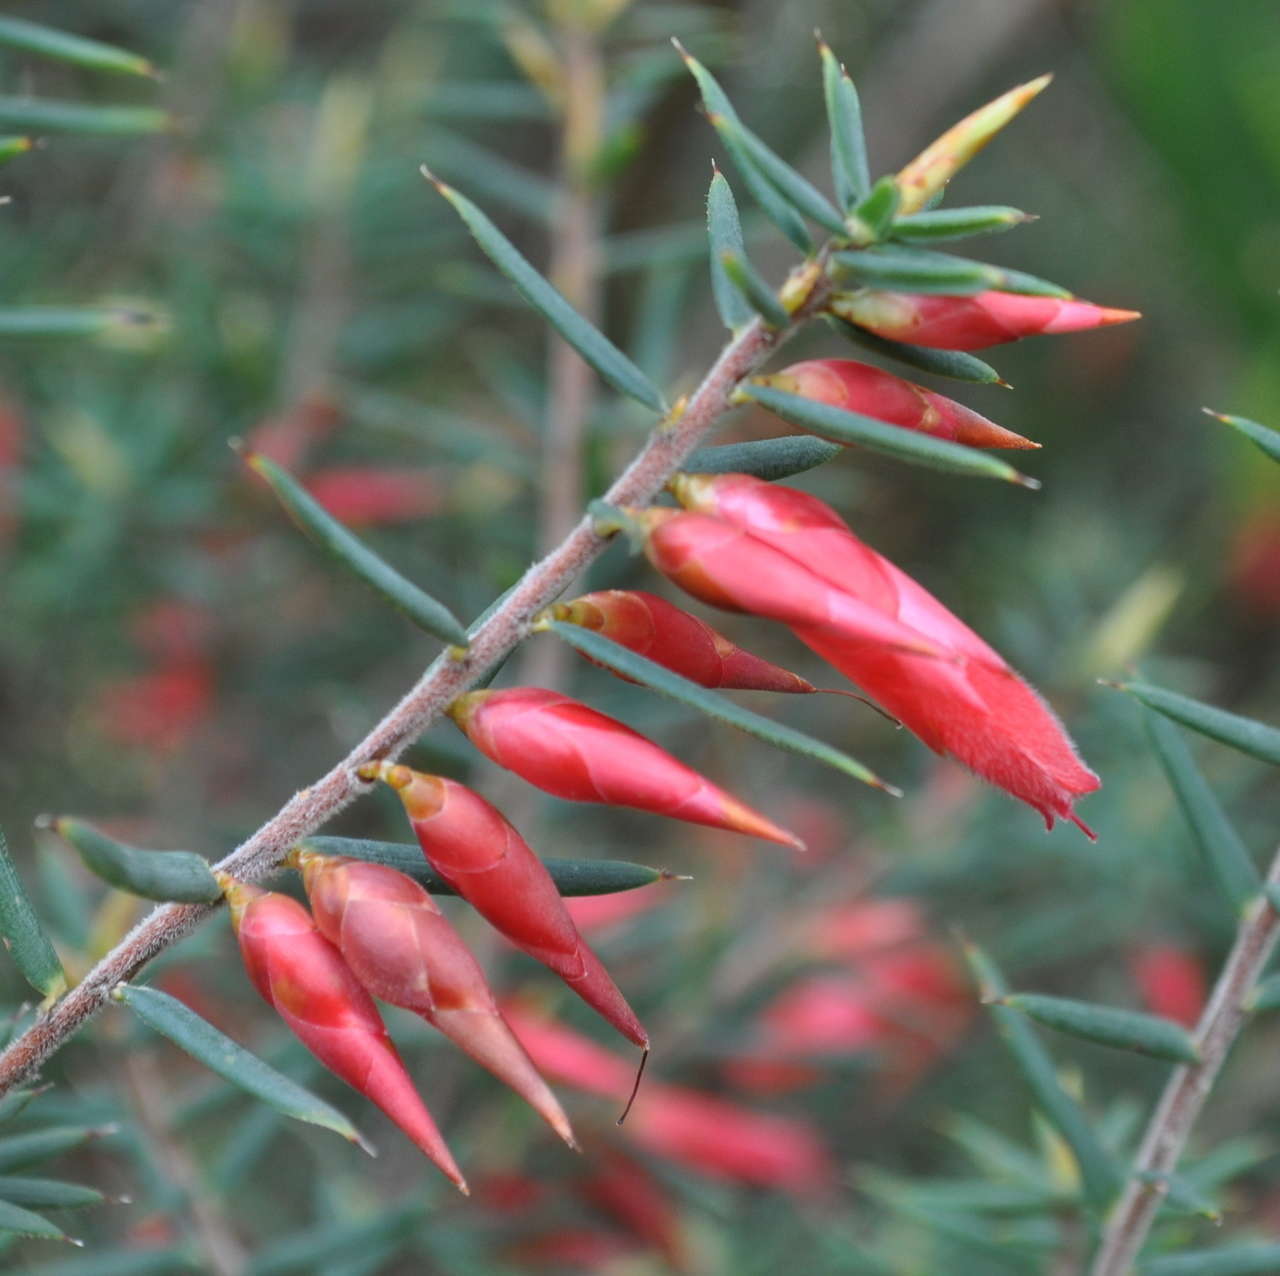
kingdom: Plantae
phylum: Tracheophyta
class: Magnoliopsida
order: Ericales
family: Ericaceae
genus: Stenanthera
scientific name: Stenanthera conostephioides
